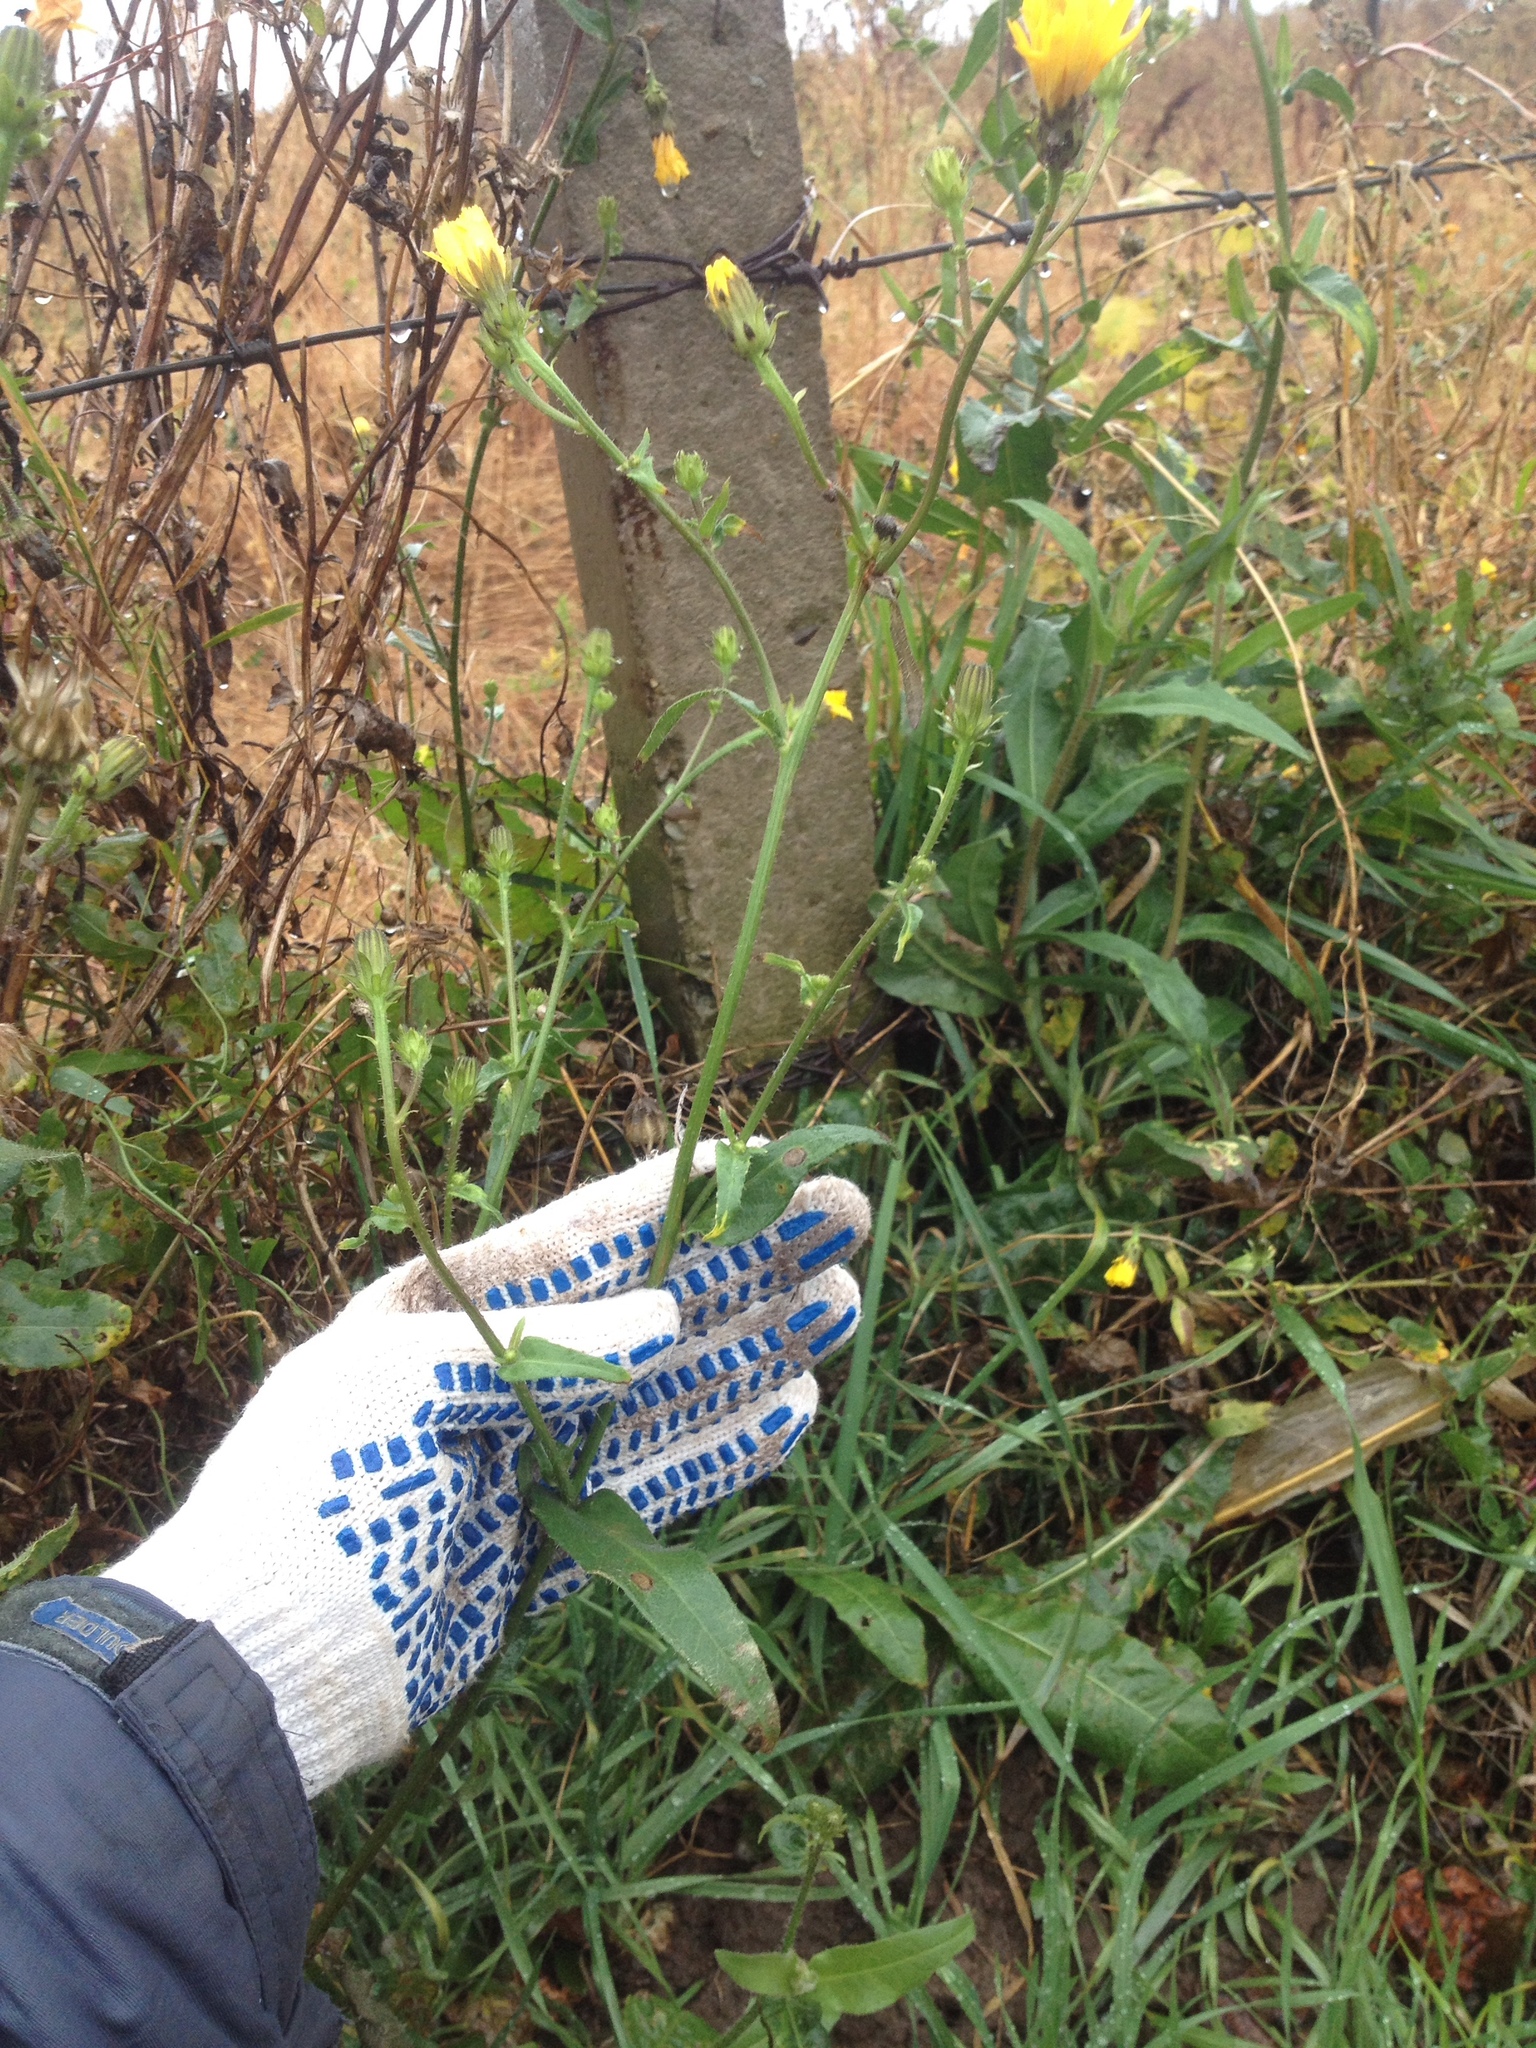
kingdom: Plantae
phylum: Tracheophyta
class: Magnoliopsida
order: Asterales
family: Asteraceae
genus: Sonchus
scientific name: Sonchus oleraceus
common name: Common sowthistle
